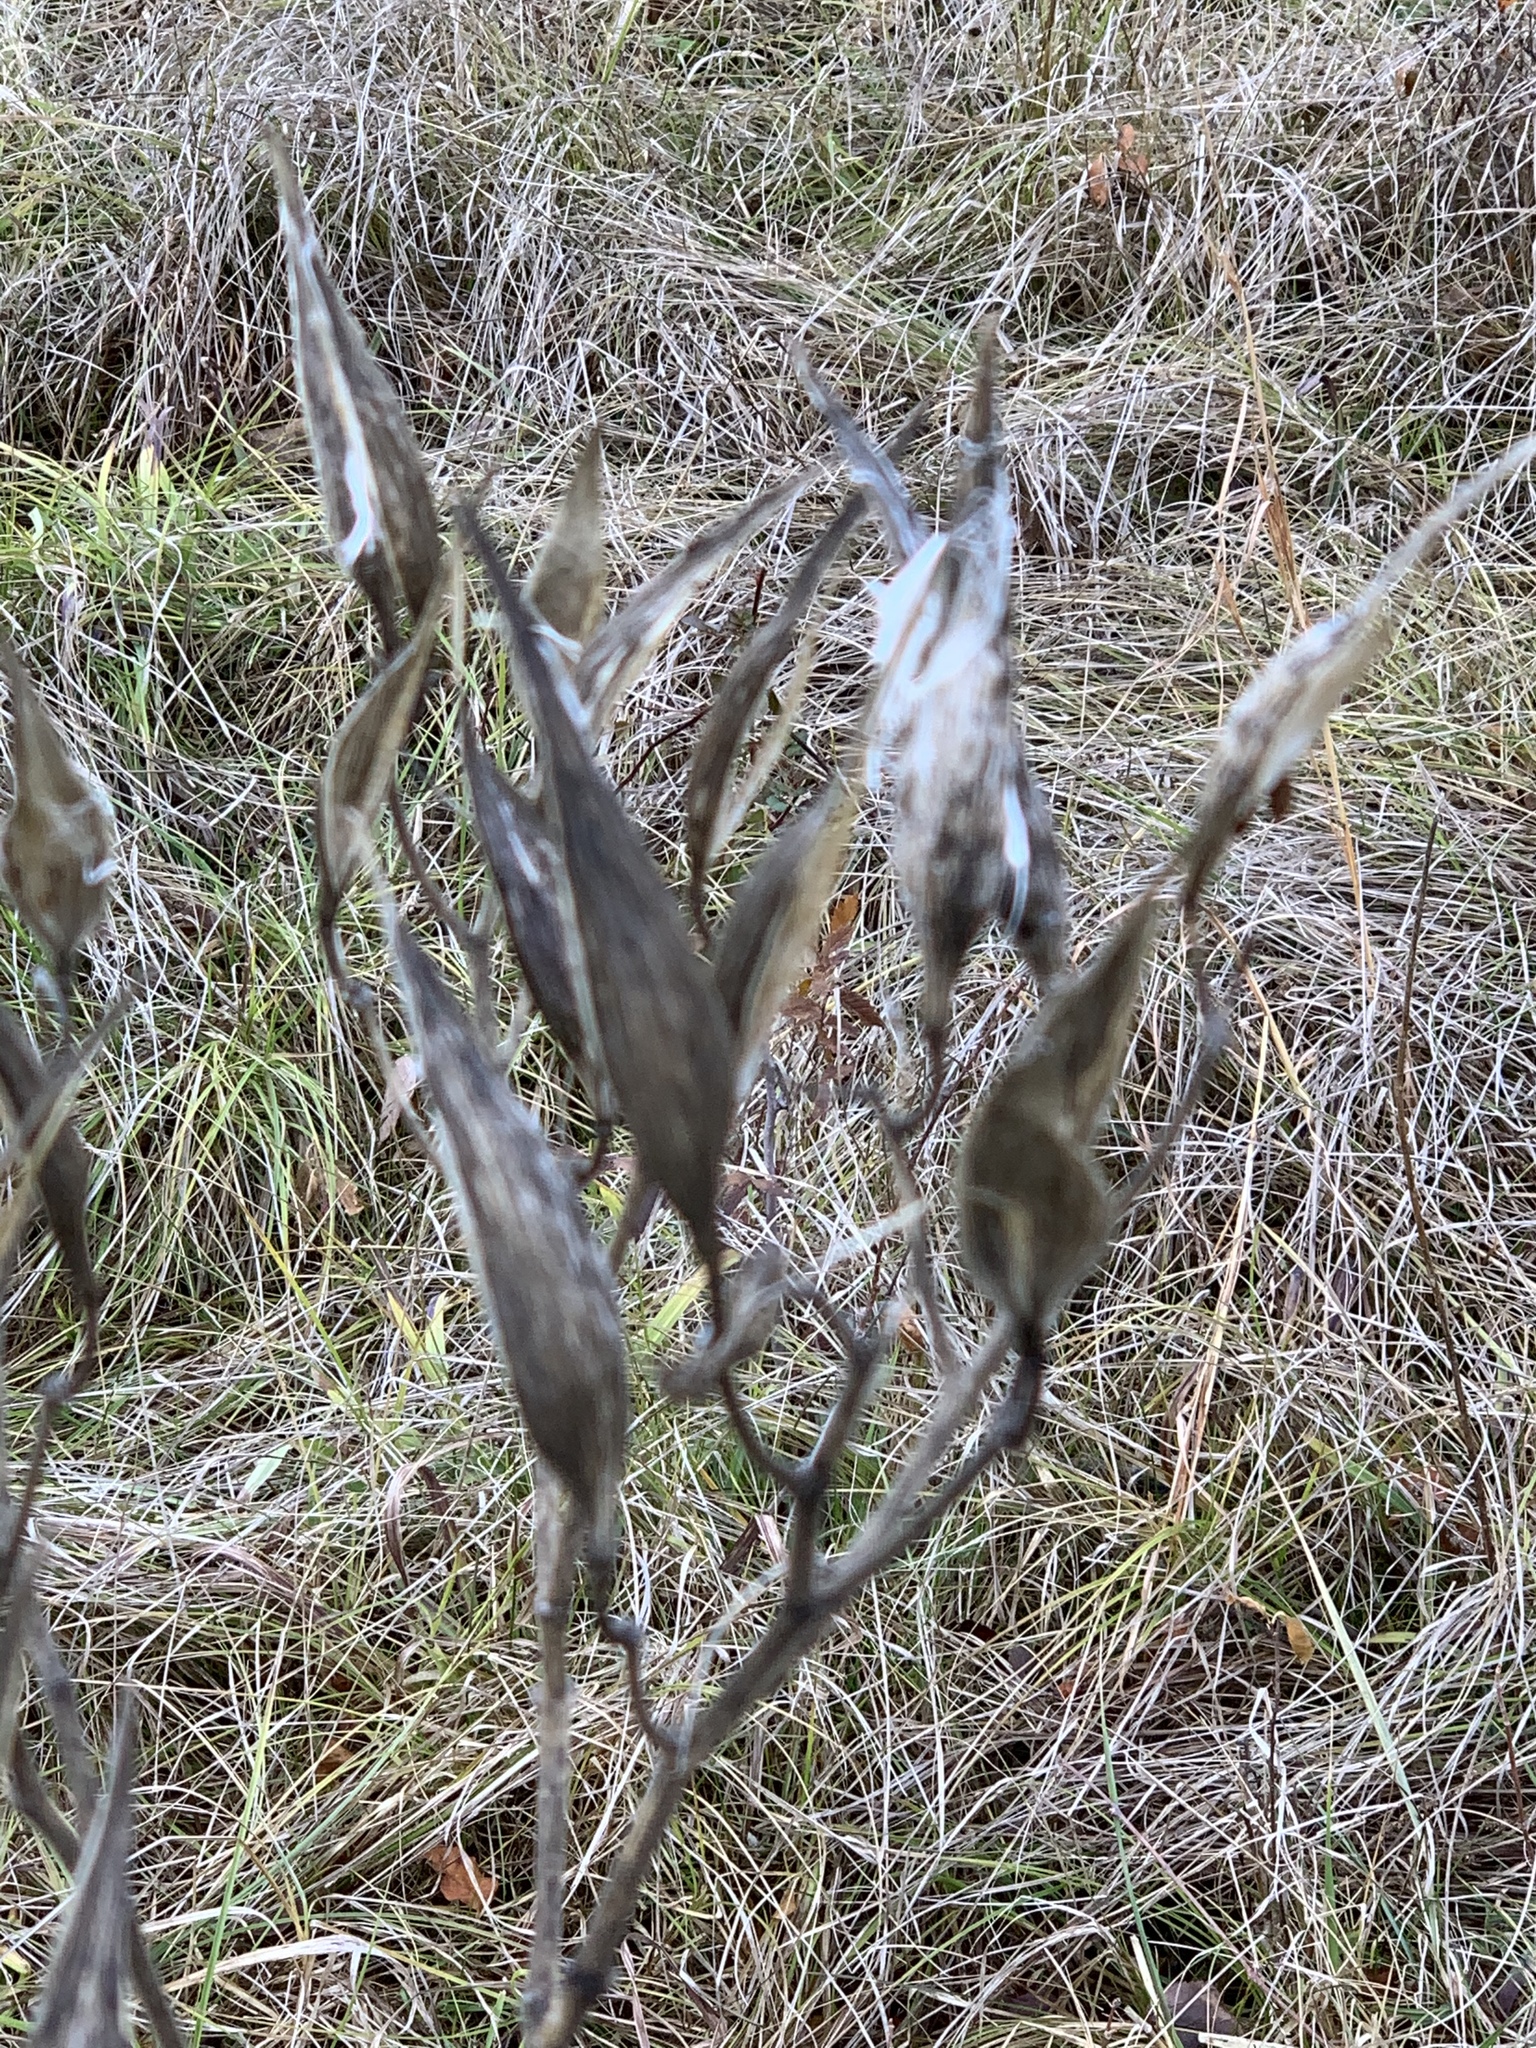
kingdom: Plantae
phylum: Tracheophyta
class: Magnoliopsida
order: Gentianales
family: Apocynaceae
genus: Asclepias
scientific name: Asclepias incarnata
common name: Swamp milkweed
